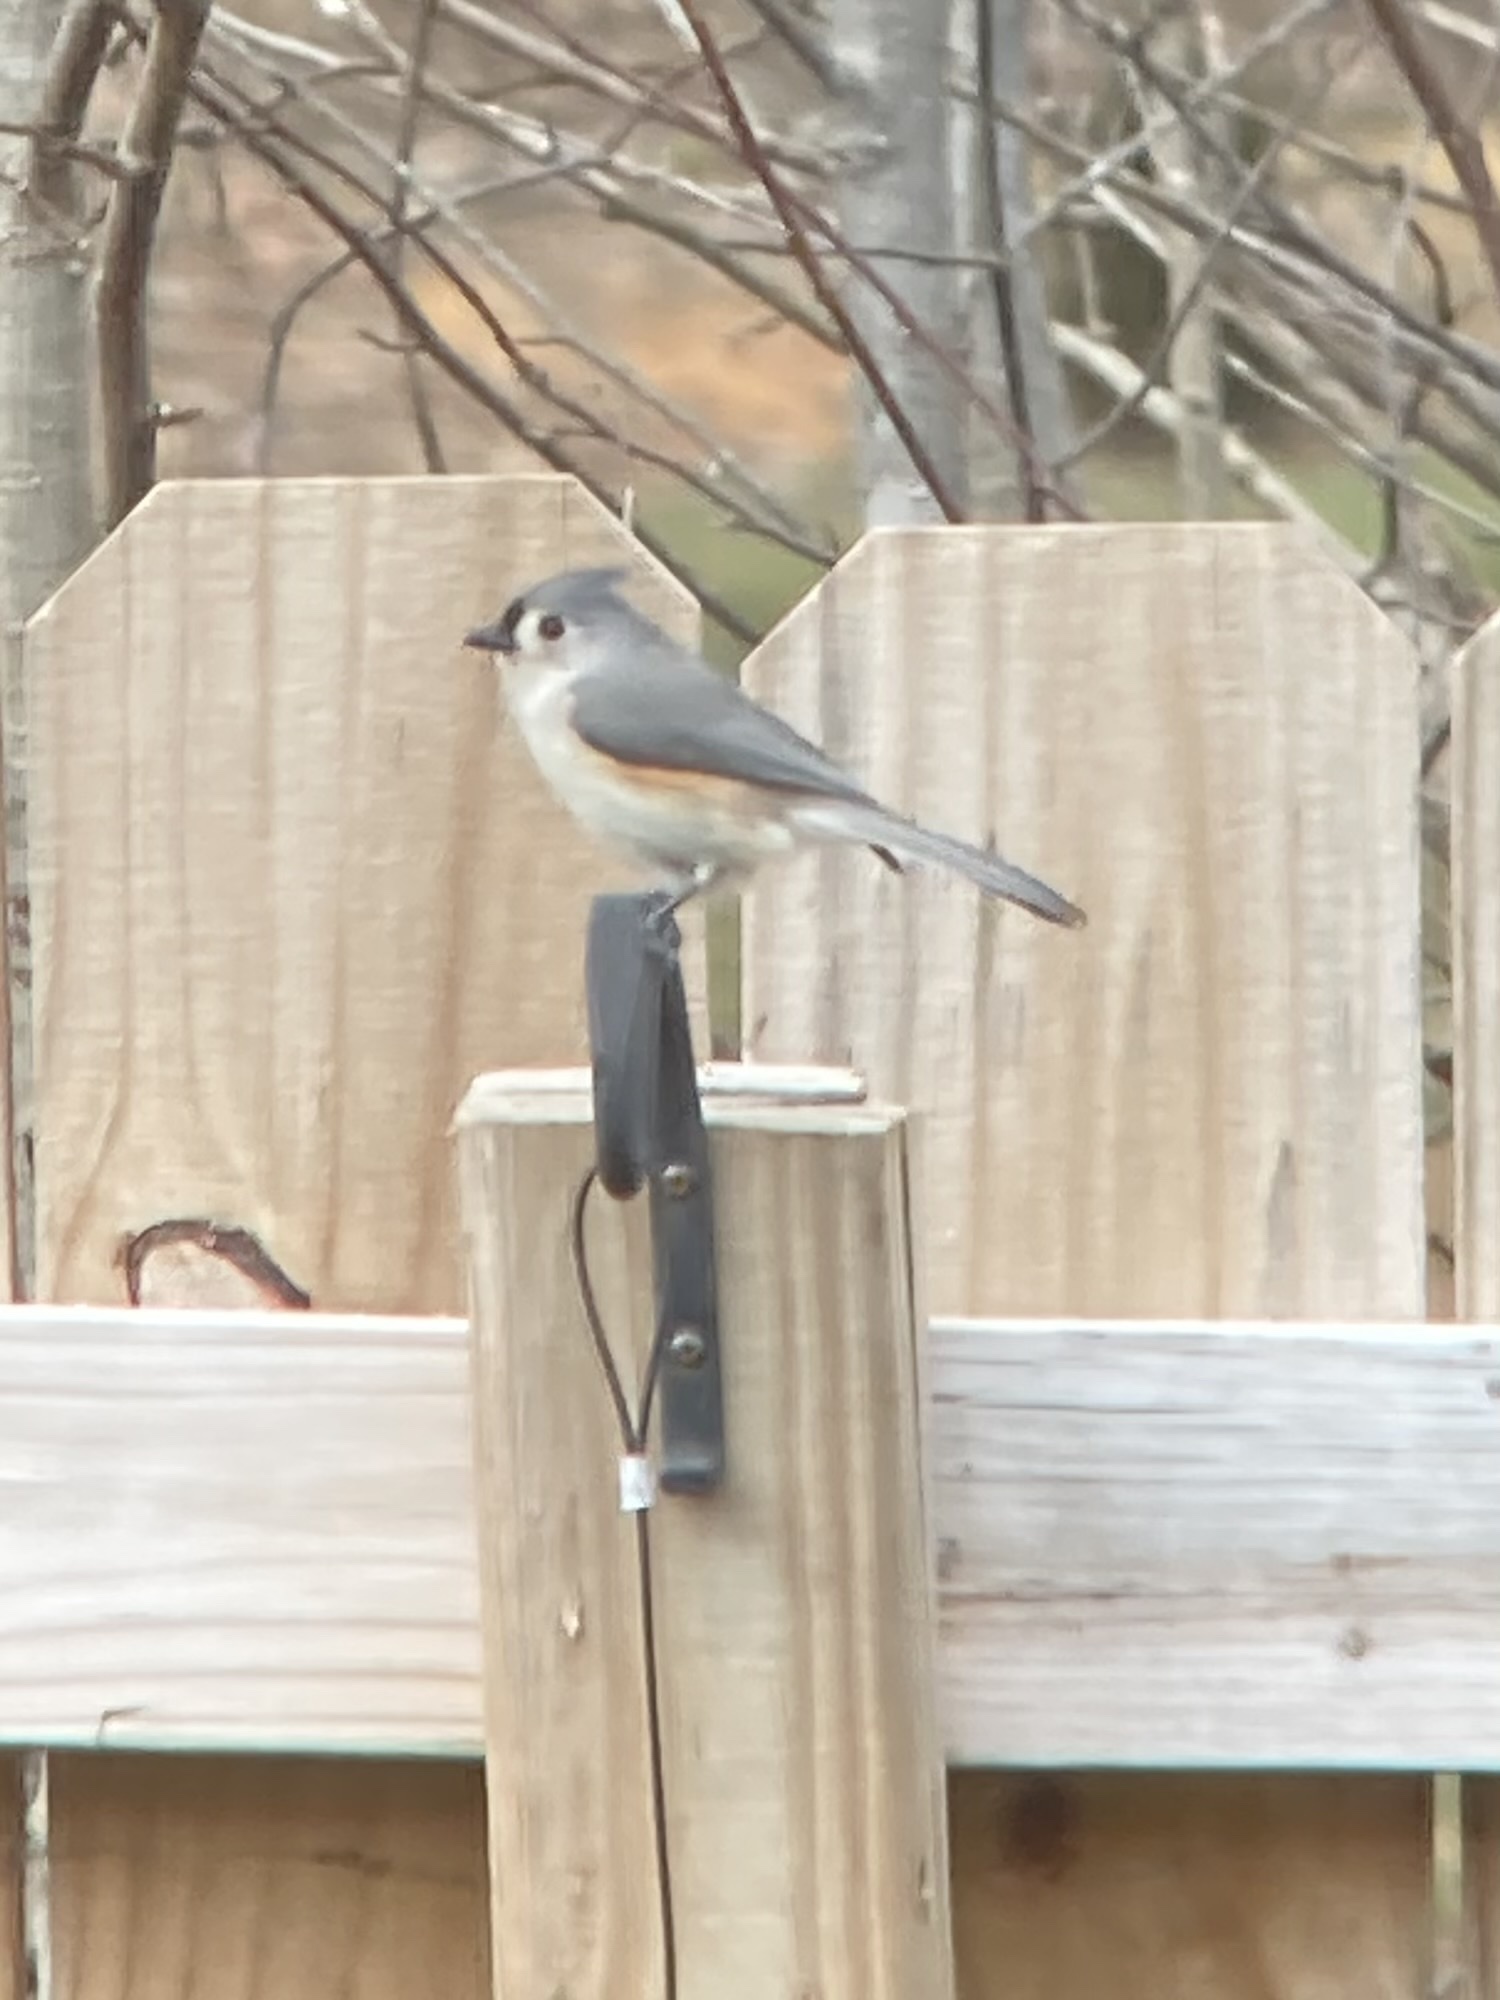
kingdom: Animalia
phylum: Chordata
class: Aves
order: Passeriformes
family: Paridae
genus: Baeolophus
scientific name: Baeolophus bicolor
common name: Tufted titmouse
